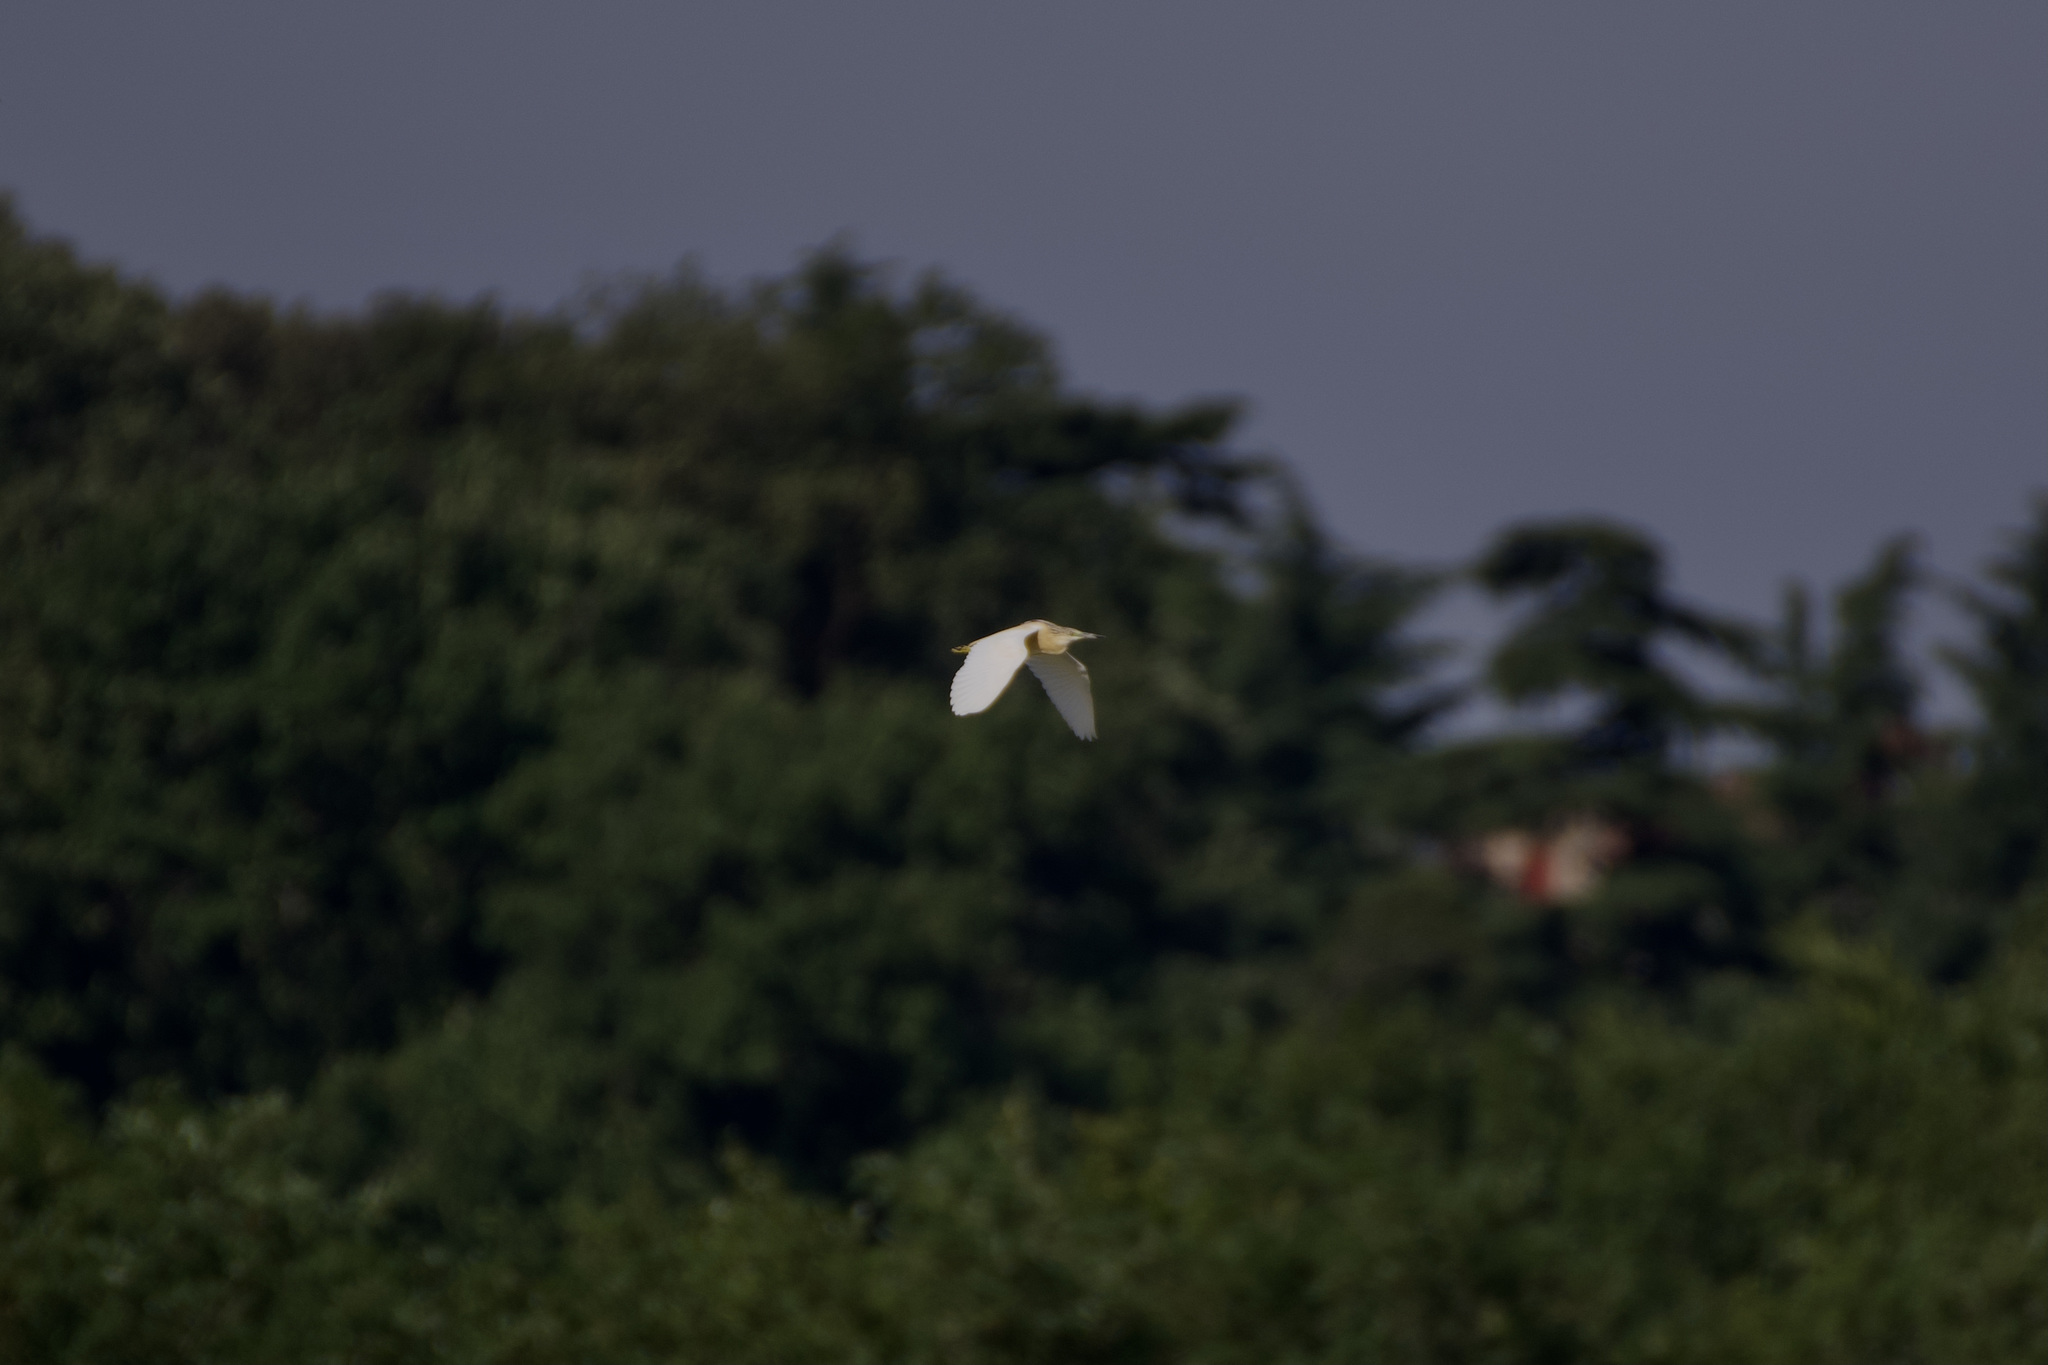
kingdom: Animalia
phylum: Chordata
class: Aves
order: Pelecaniformes
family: Ardeidae
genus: Ardeola
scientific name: Ardeola ralloides
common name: Squacco heron
